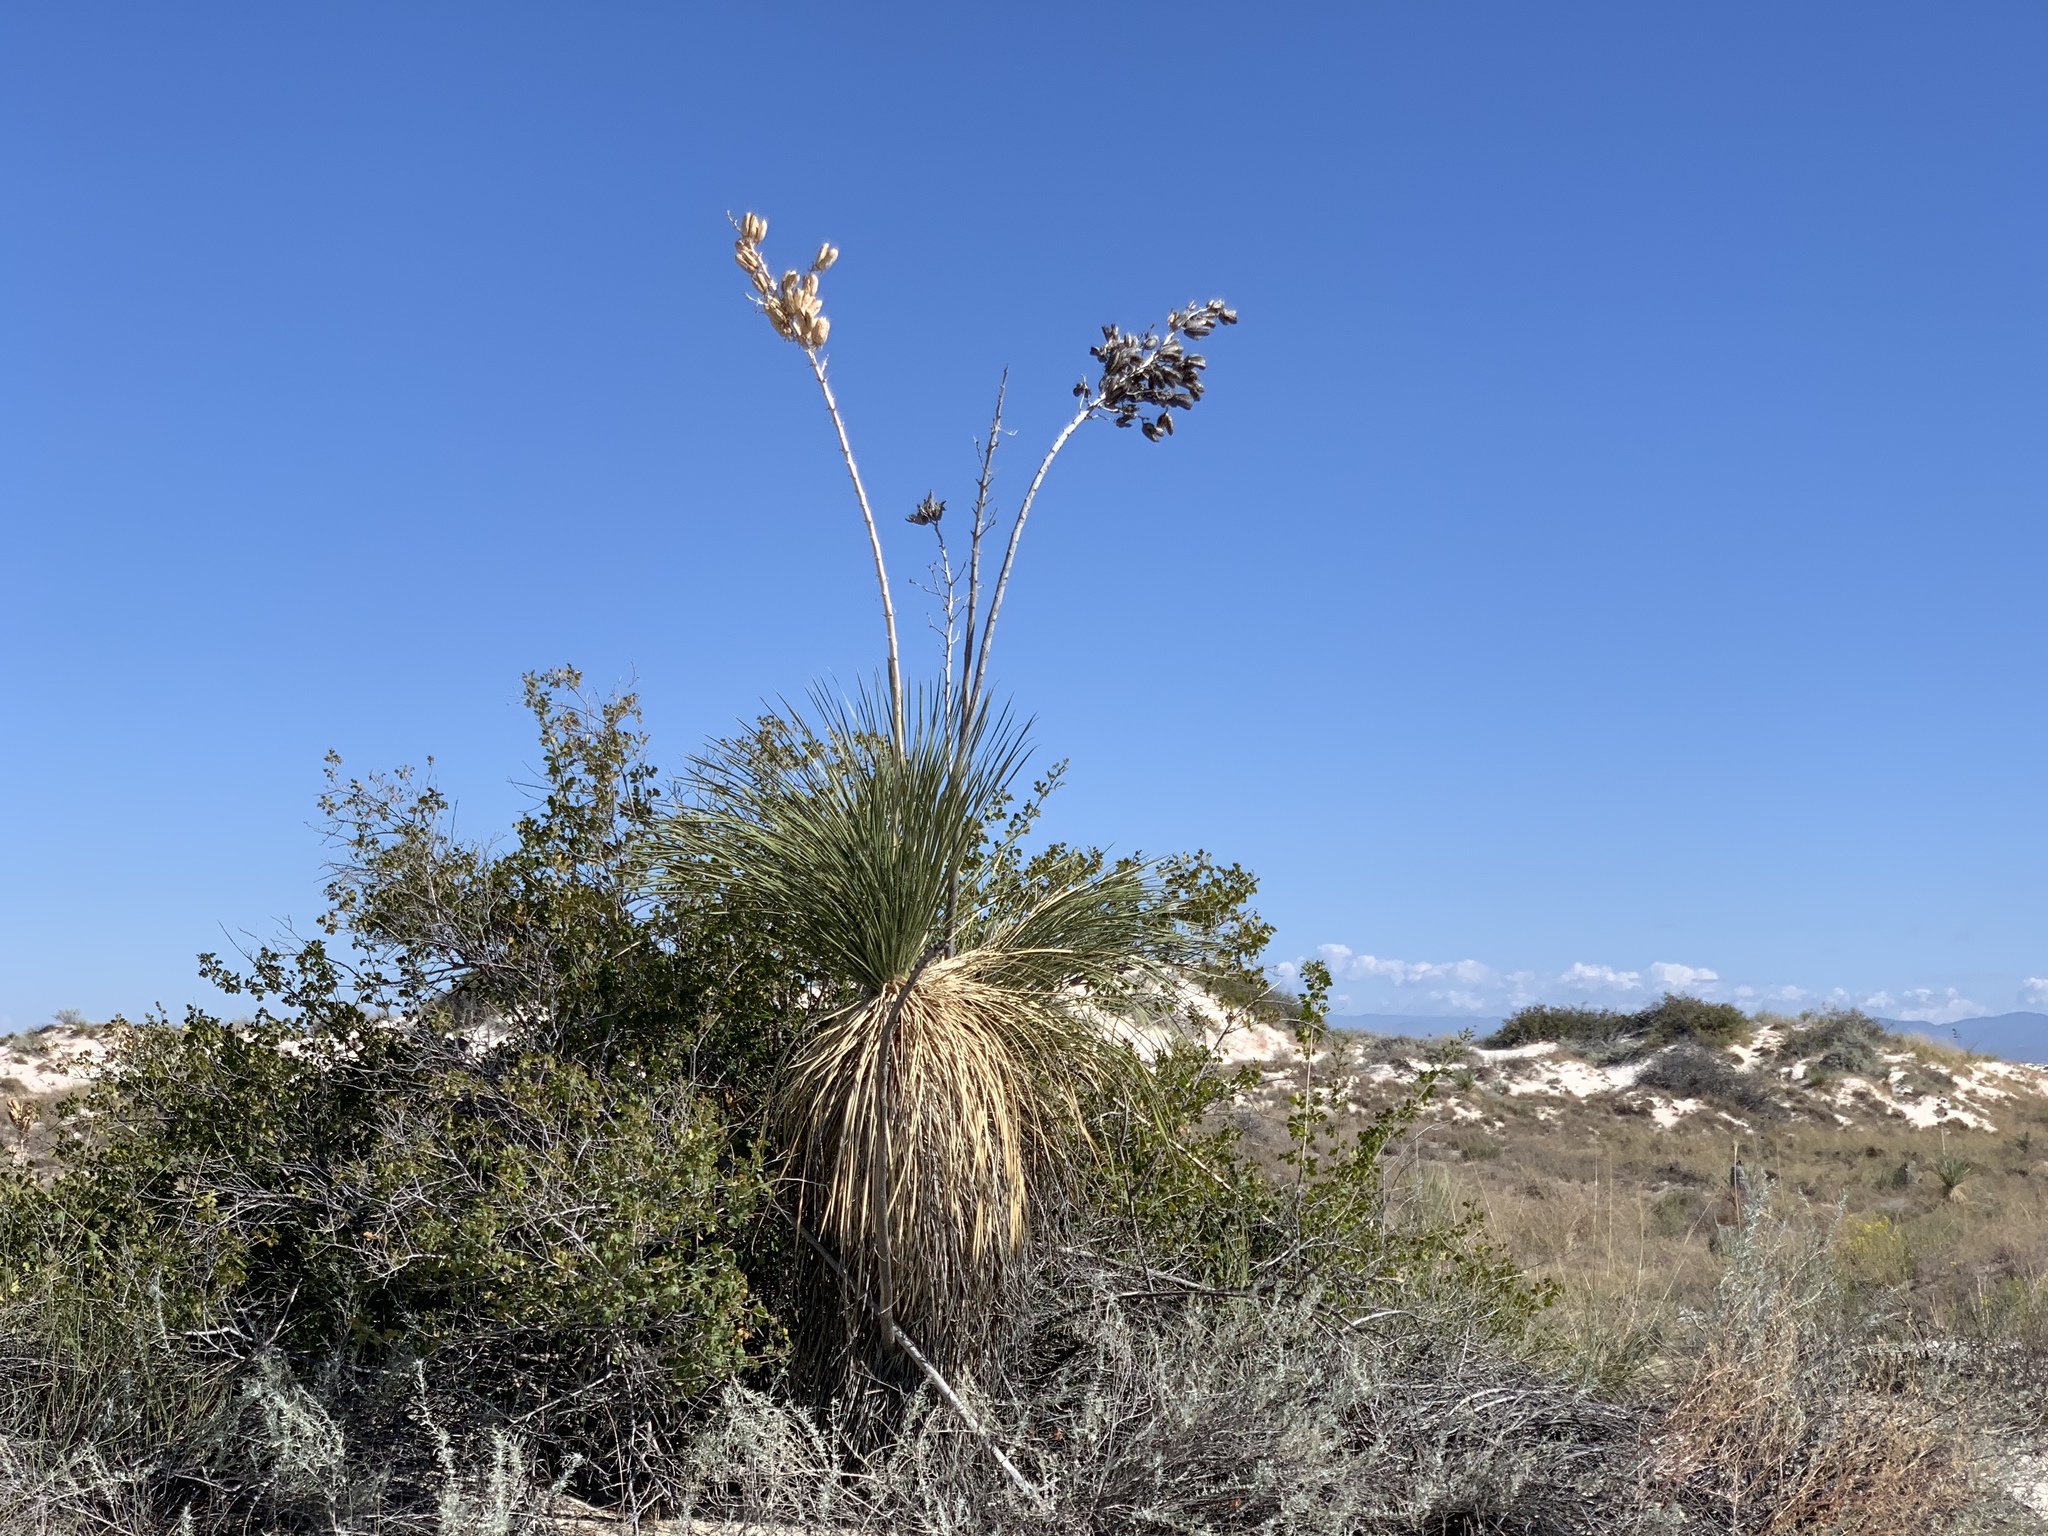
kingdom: Plantae
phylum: Tracheophyta
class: Liliopsida
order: Asparagales
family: Asparagaceae
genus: Yucca
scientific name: Yucca elata
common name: Palmella
